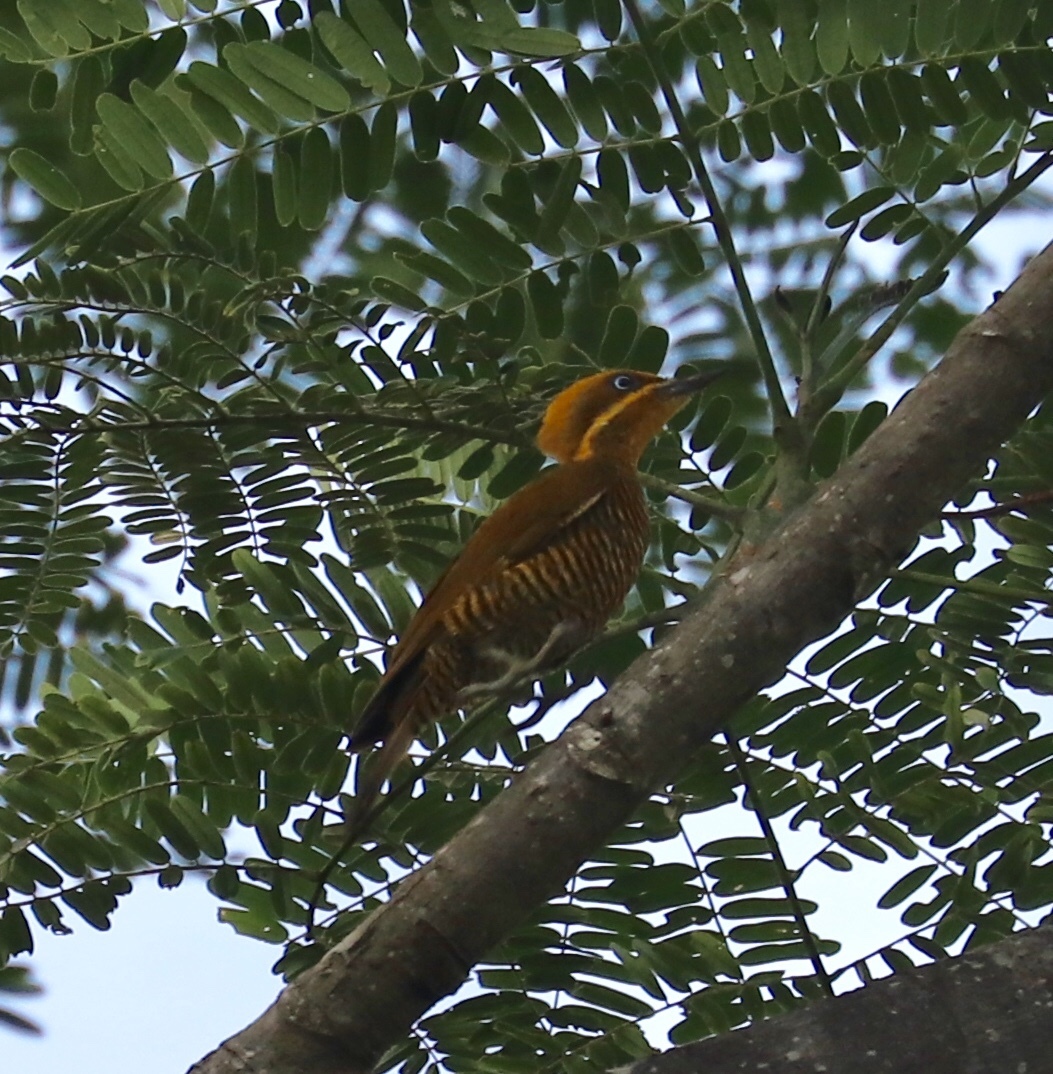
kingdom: Animalia
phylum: Chordata
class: Aves
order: Piciformes
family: Picidae
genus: Piculus
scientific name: Piculus chrysochloros
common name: Golden-green woodpecker
